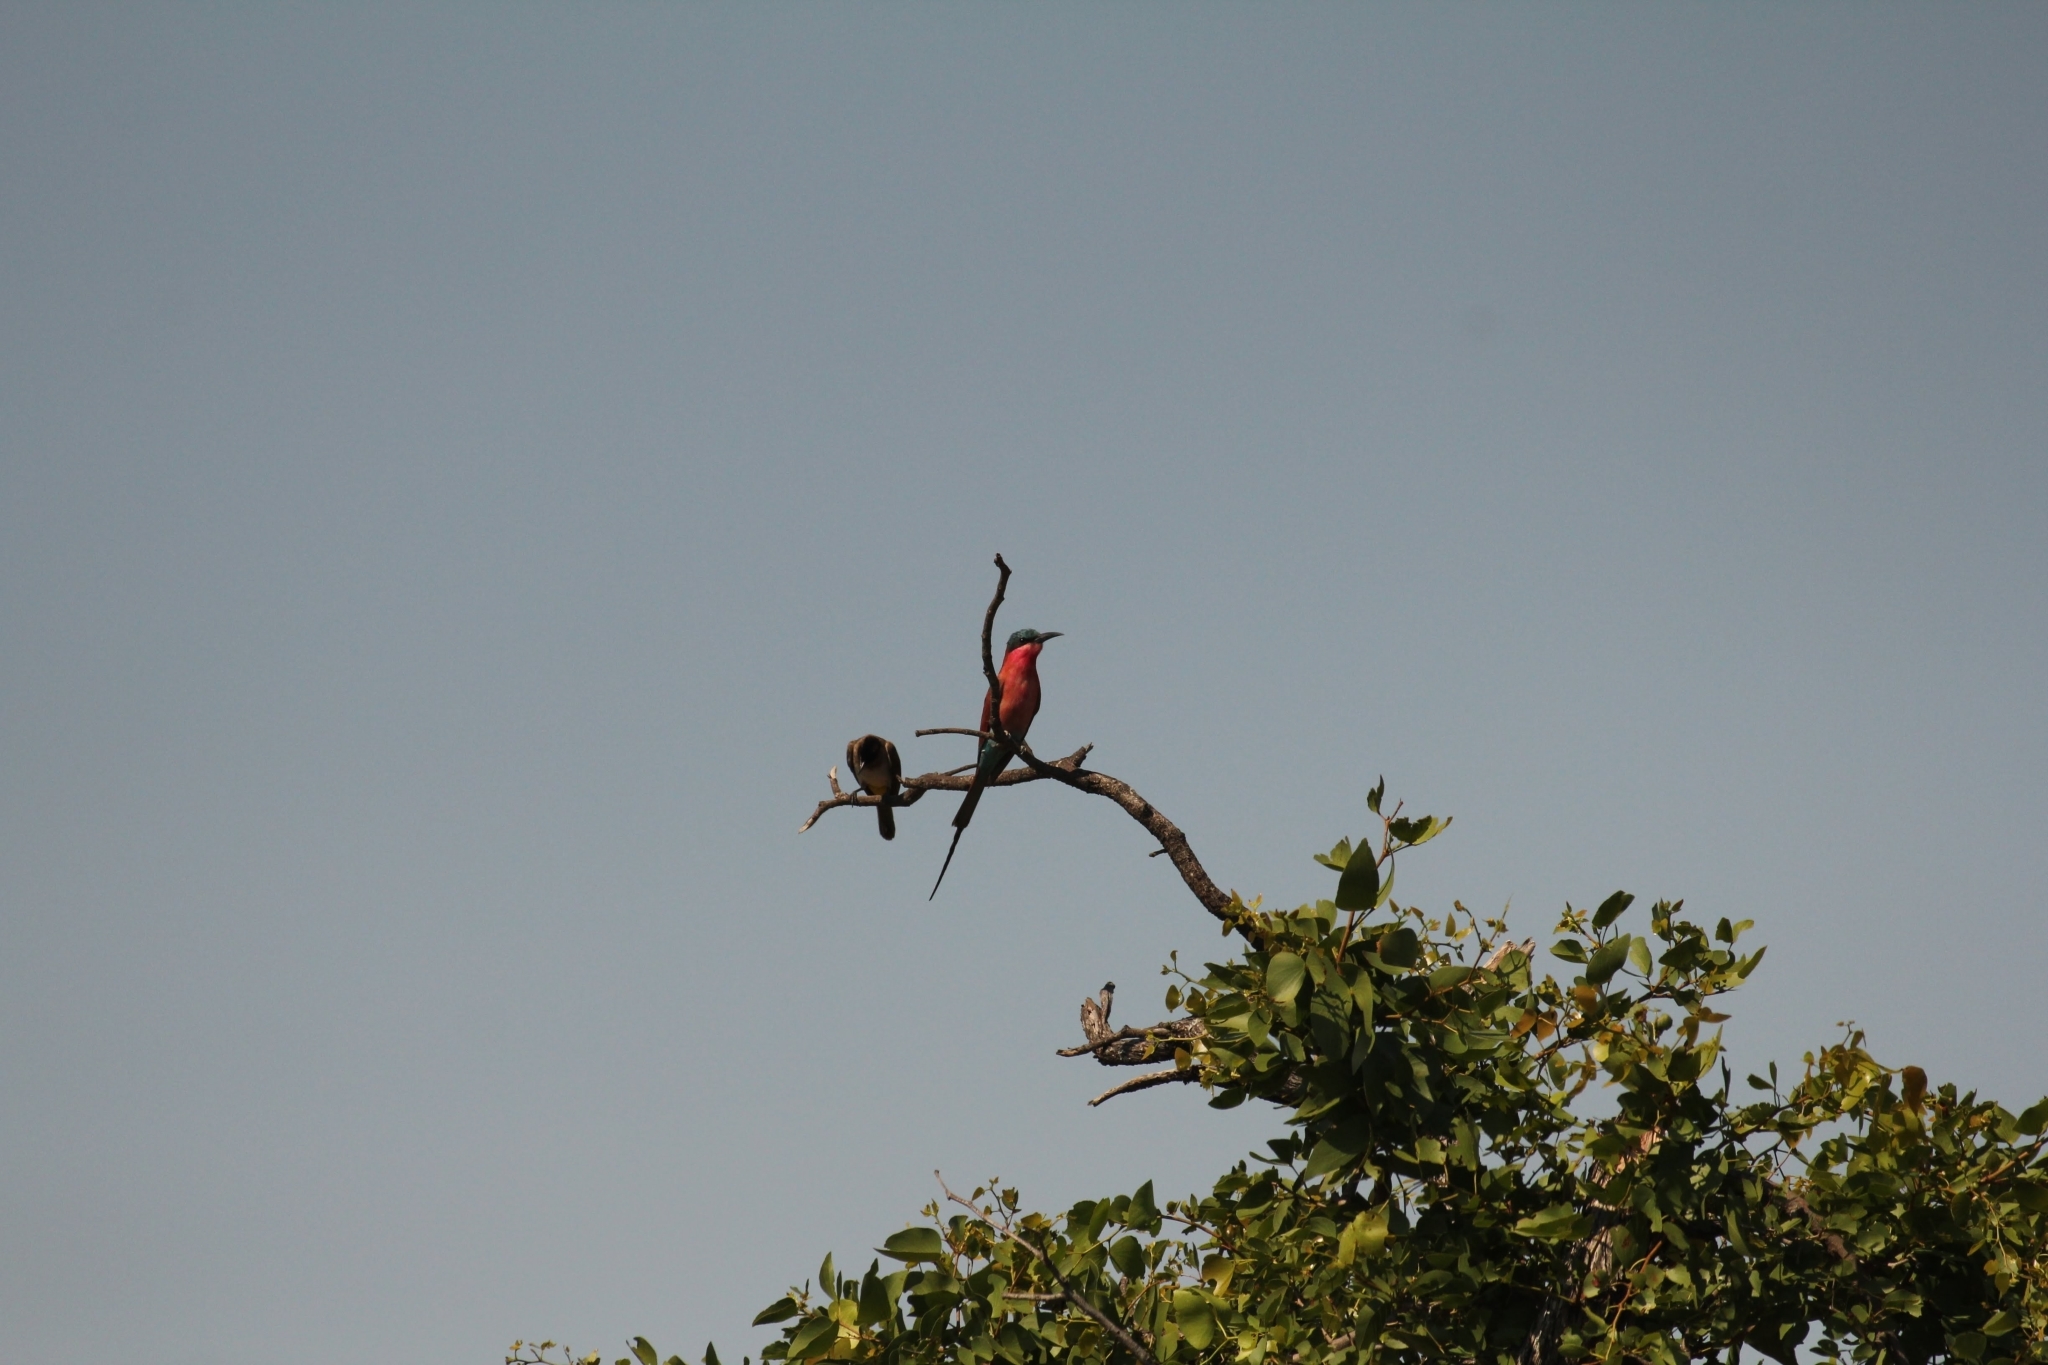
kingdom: Animalia
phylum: Chordata
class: Aves
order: Coraciiformes
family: Meropidae
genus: Merops
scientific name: Merops nubicoides
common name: Southern carmine bee-eater
